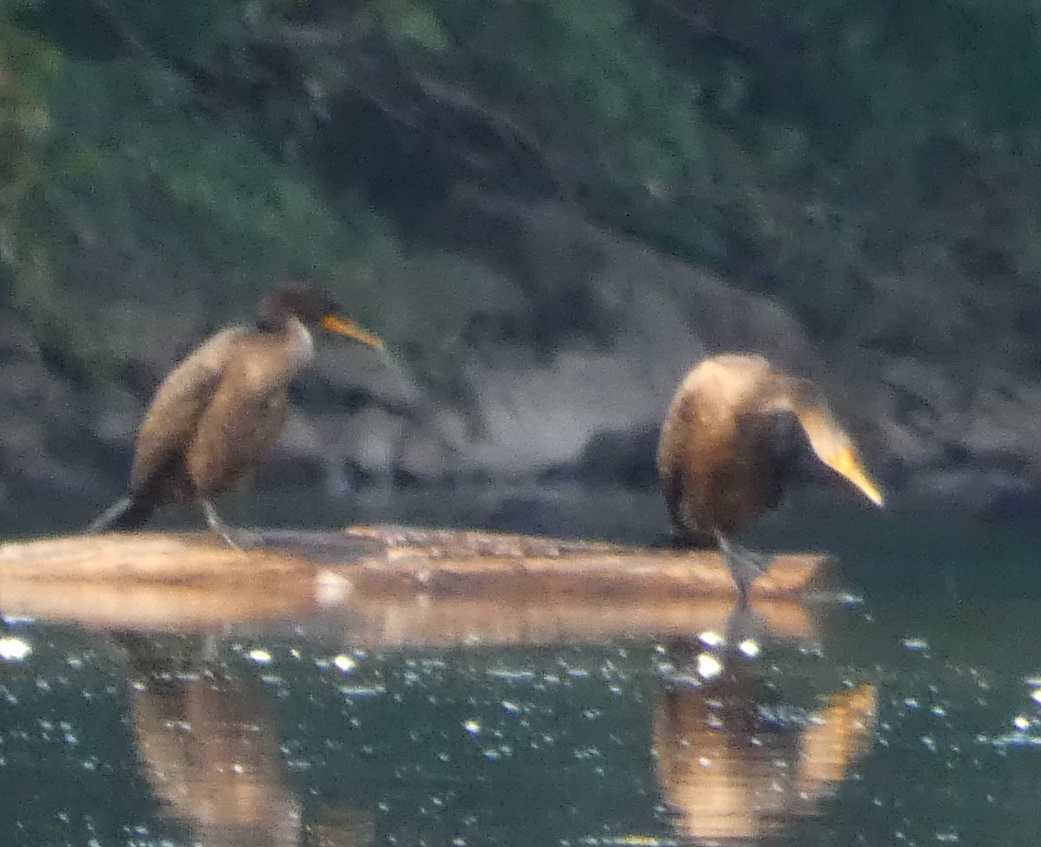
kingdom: Animalia
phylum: Chordata
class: Aves
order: Suliformes
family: Phalacrocoracidae
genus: Phalacrocorax
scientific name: Phalacrocorax auritus
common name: Double-crested cormorant
